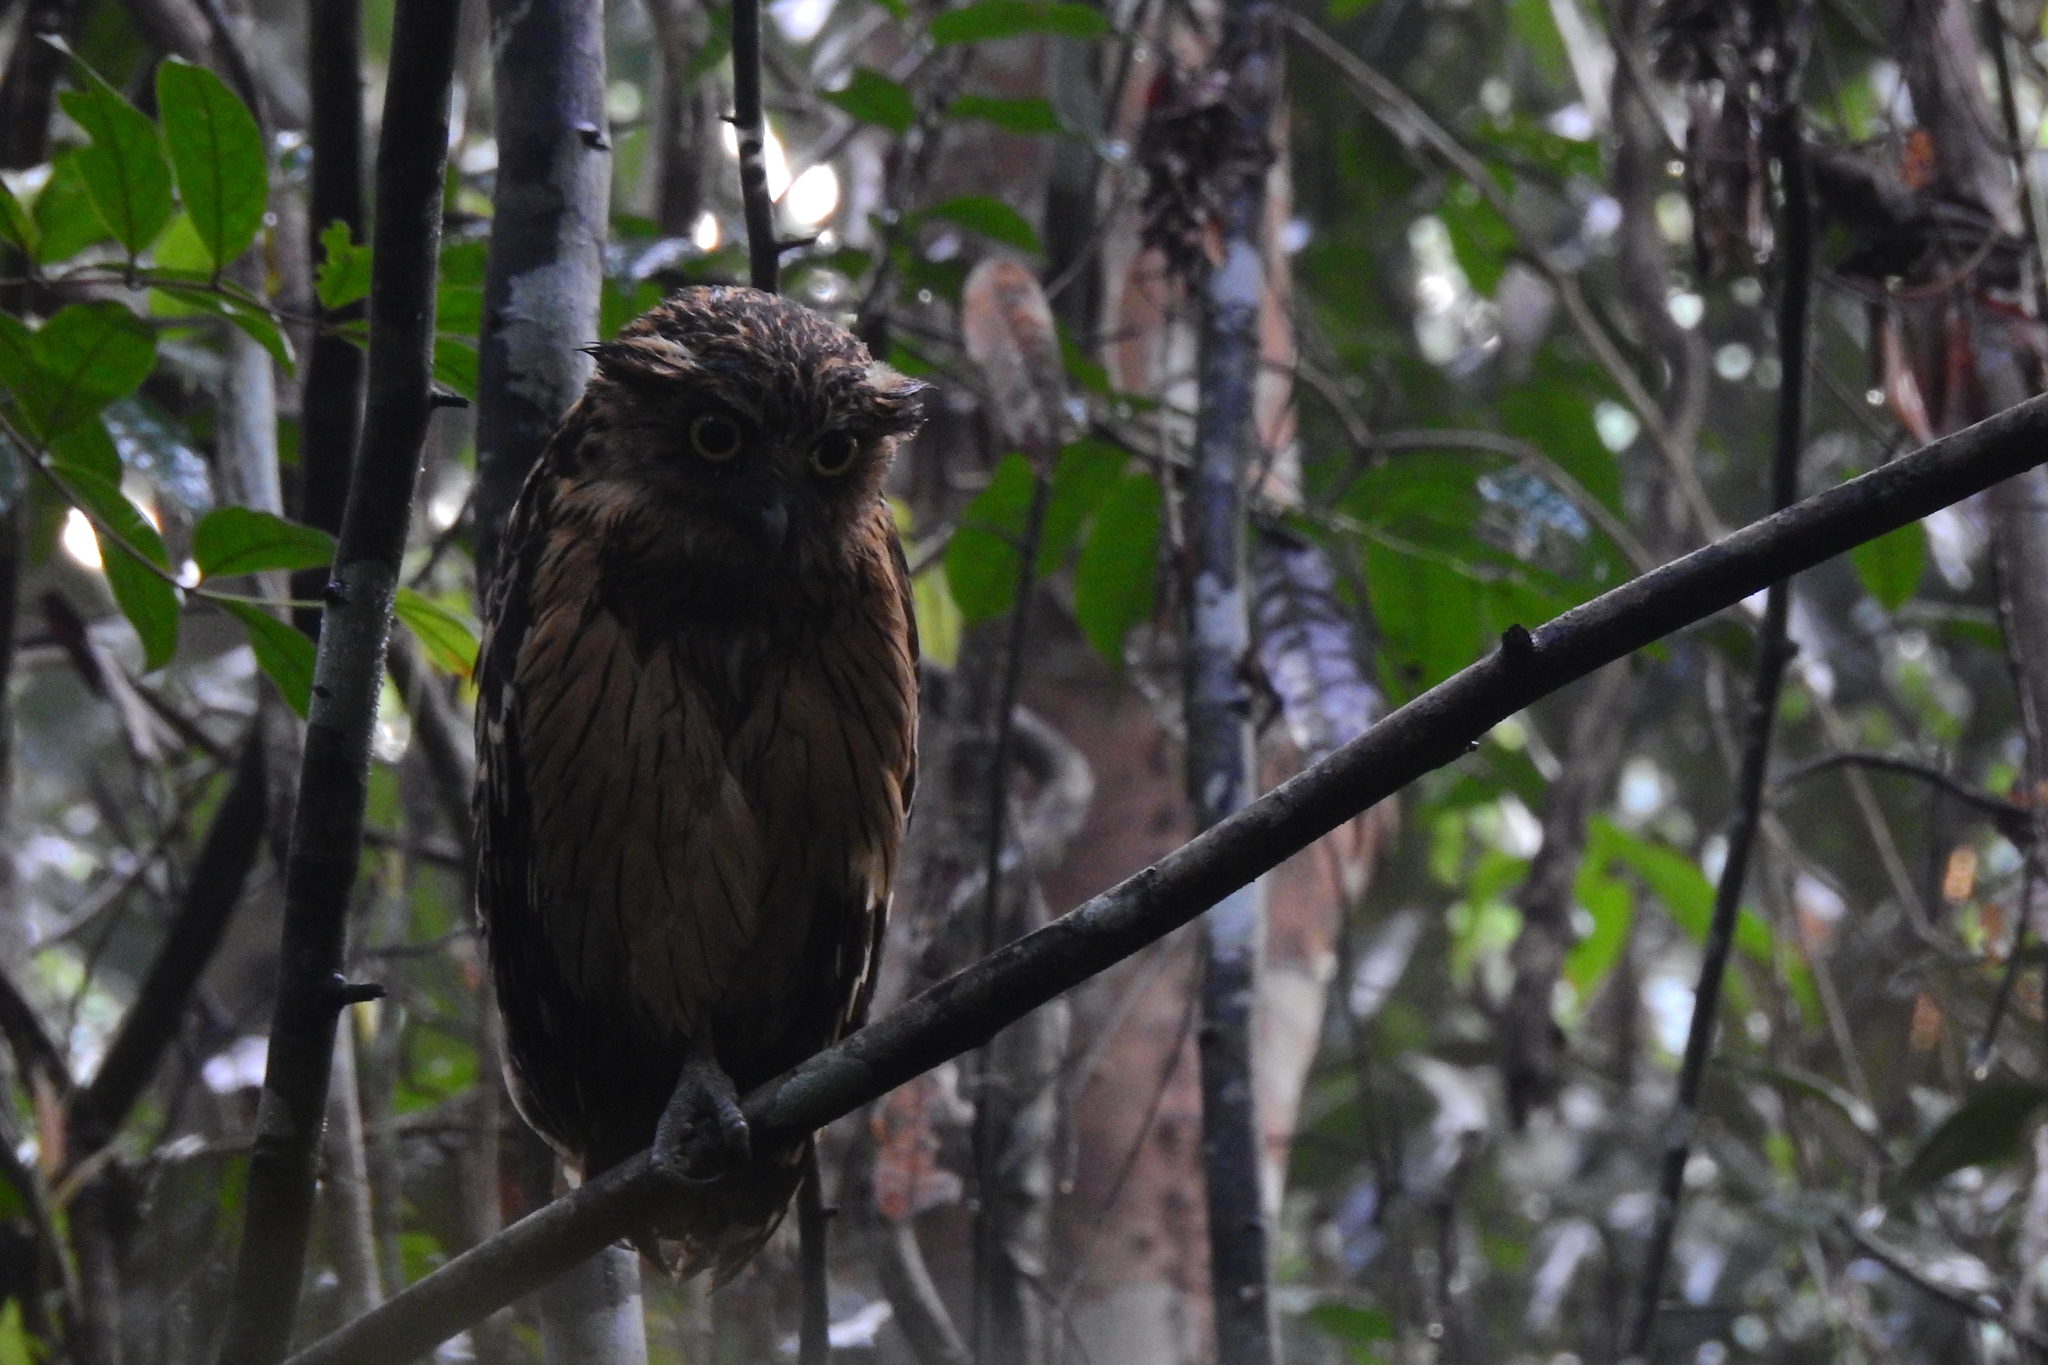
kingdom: Animalia
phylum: Chordata
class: Aves
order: Strigiformes
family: Strigidae
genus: Ketupa
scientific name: Ketupa ketupu
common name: Buffy fish-owl
